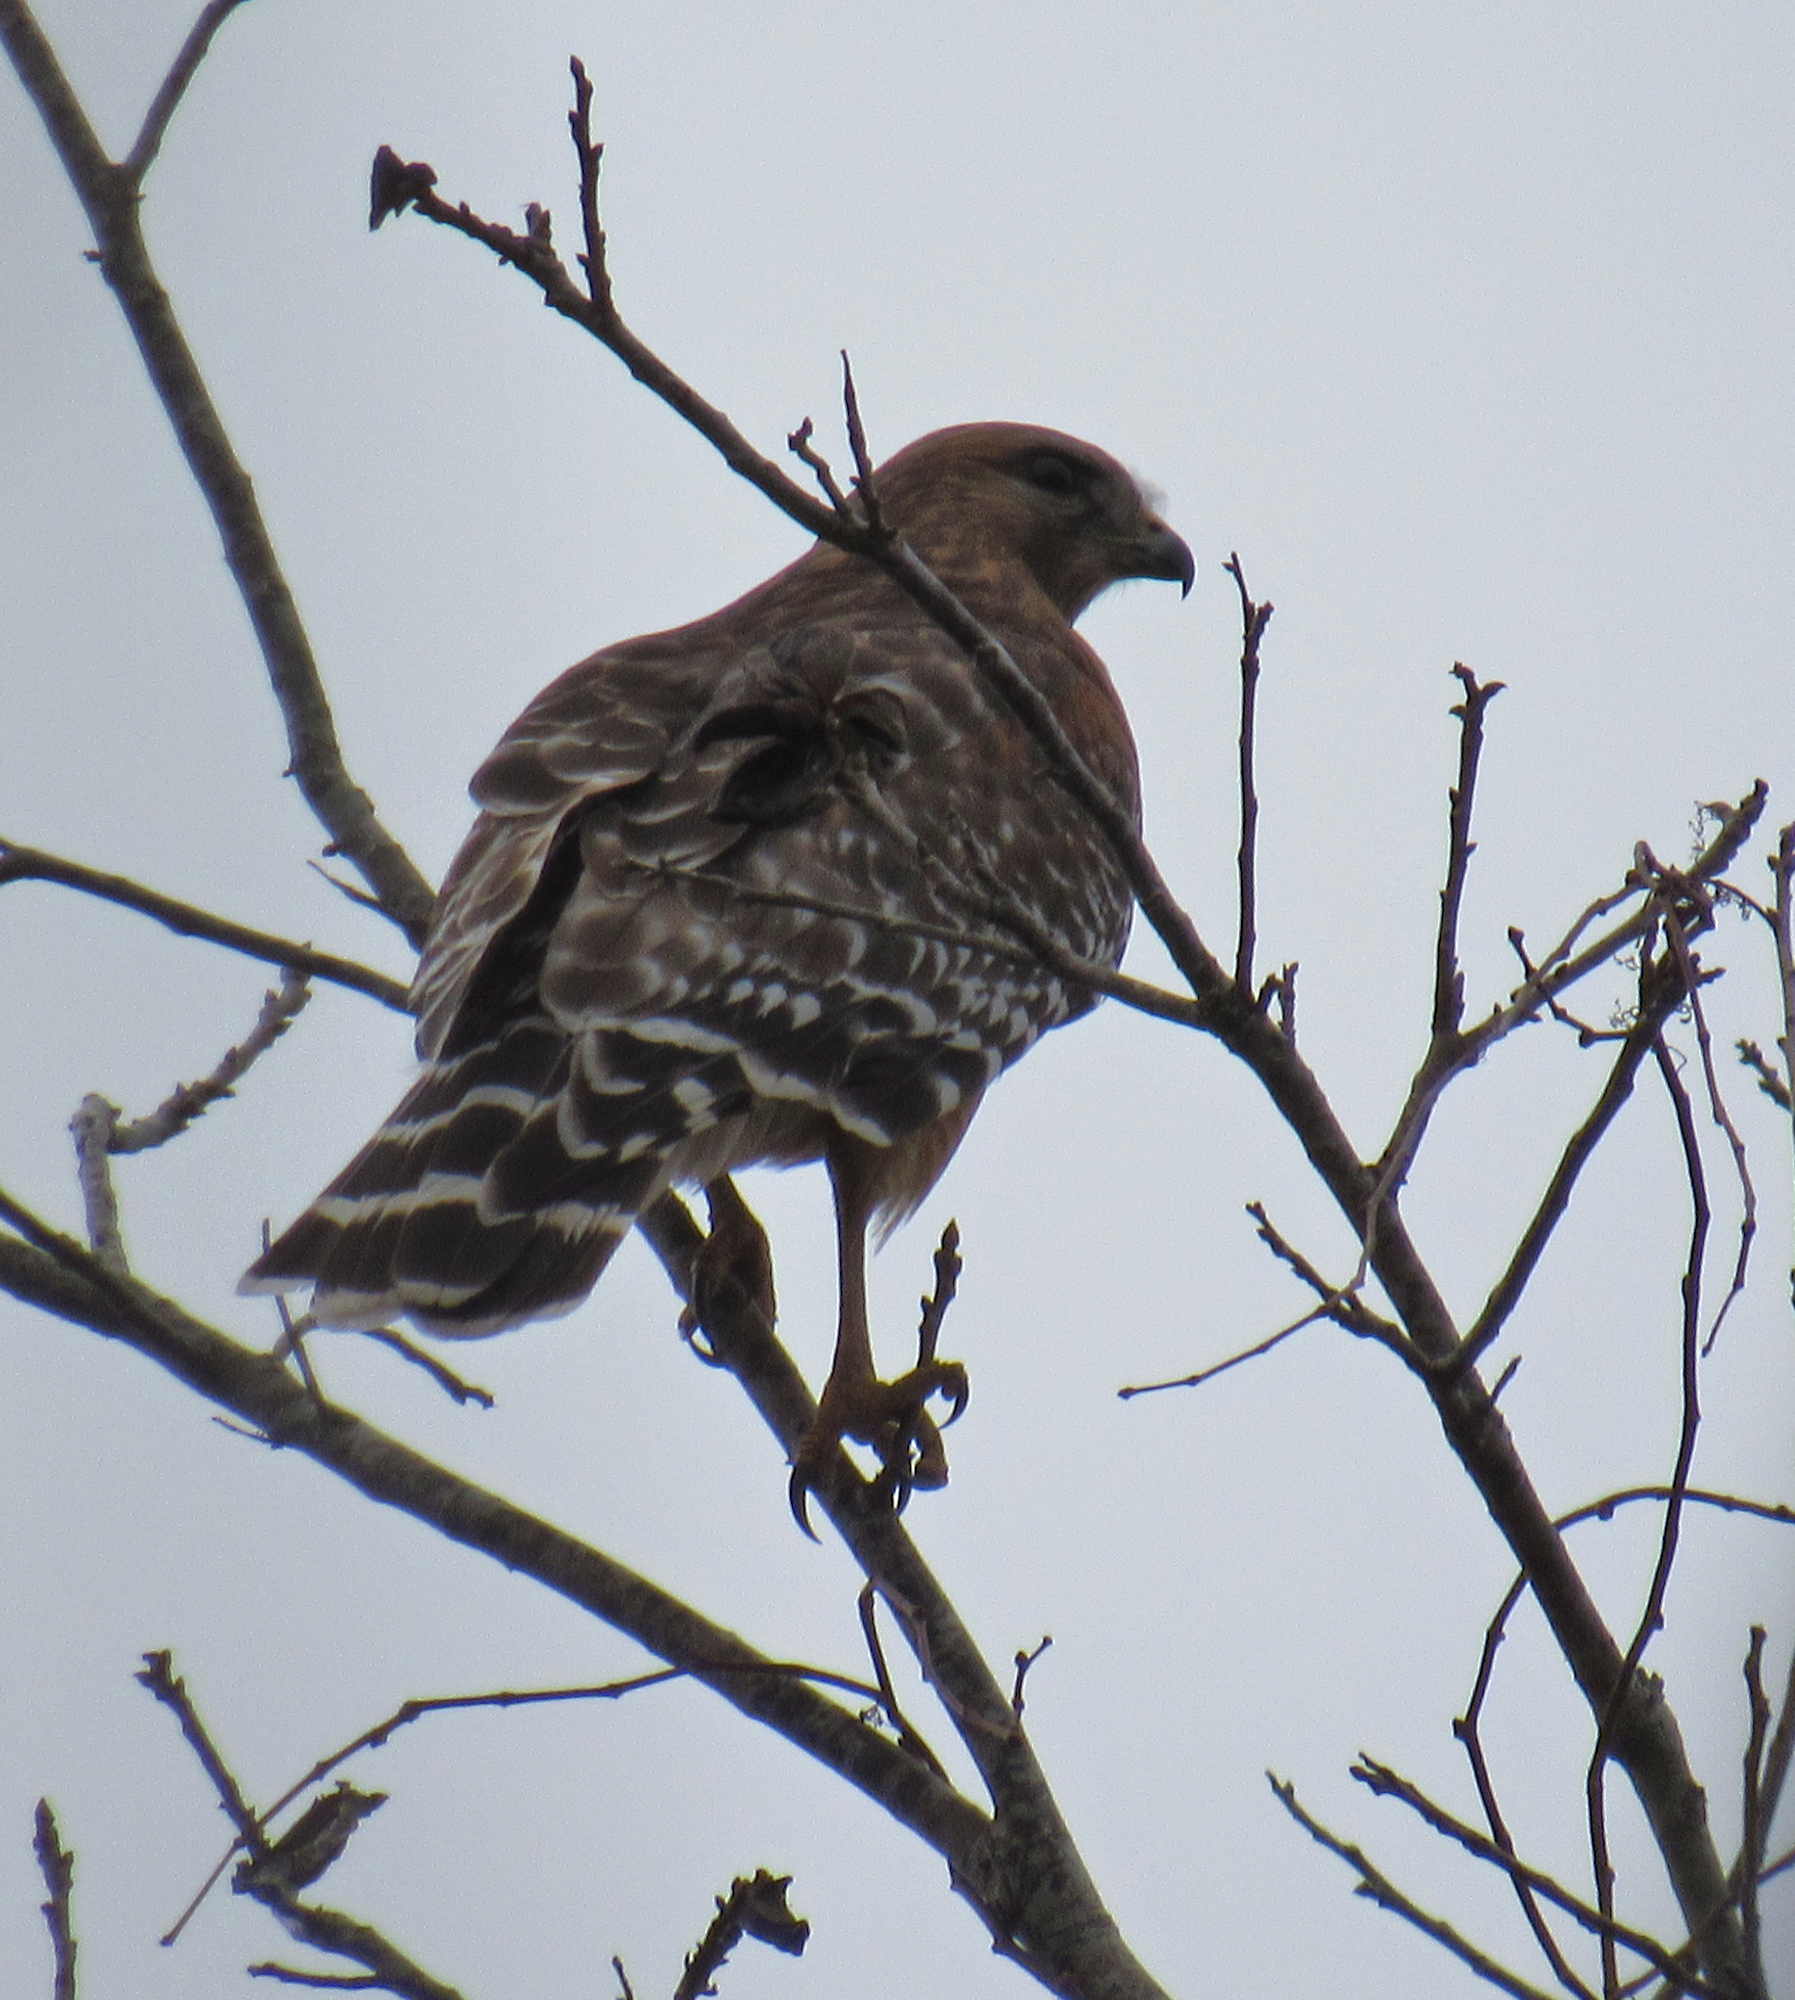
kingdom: Animalia
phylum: Chordata
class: Aves
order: Accipitriformes
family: Accipitridae
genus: Buteo
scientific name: Buteo lineatus
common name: Red-shouldered hawk
